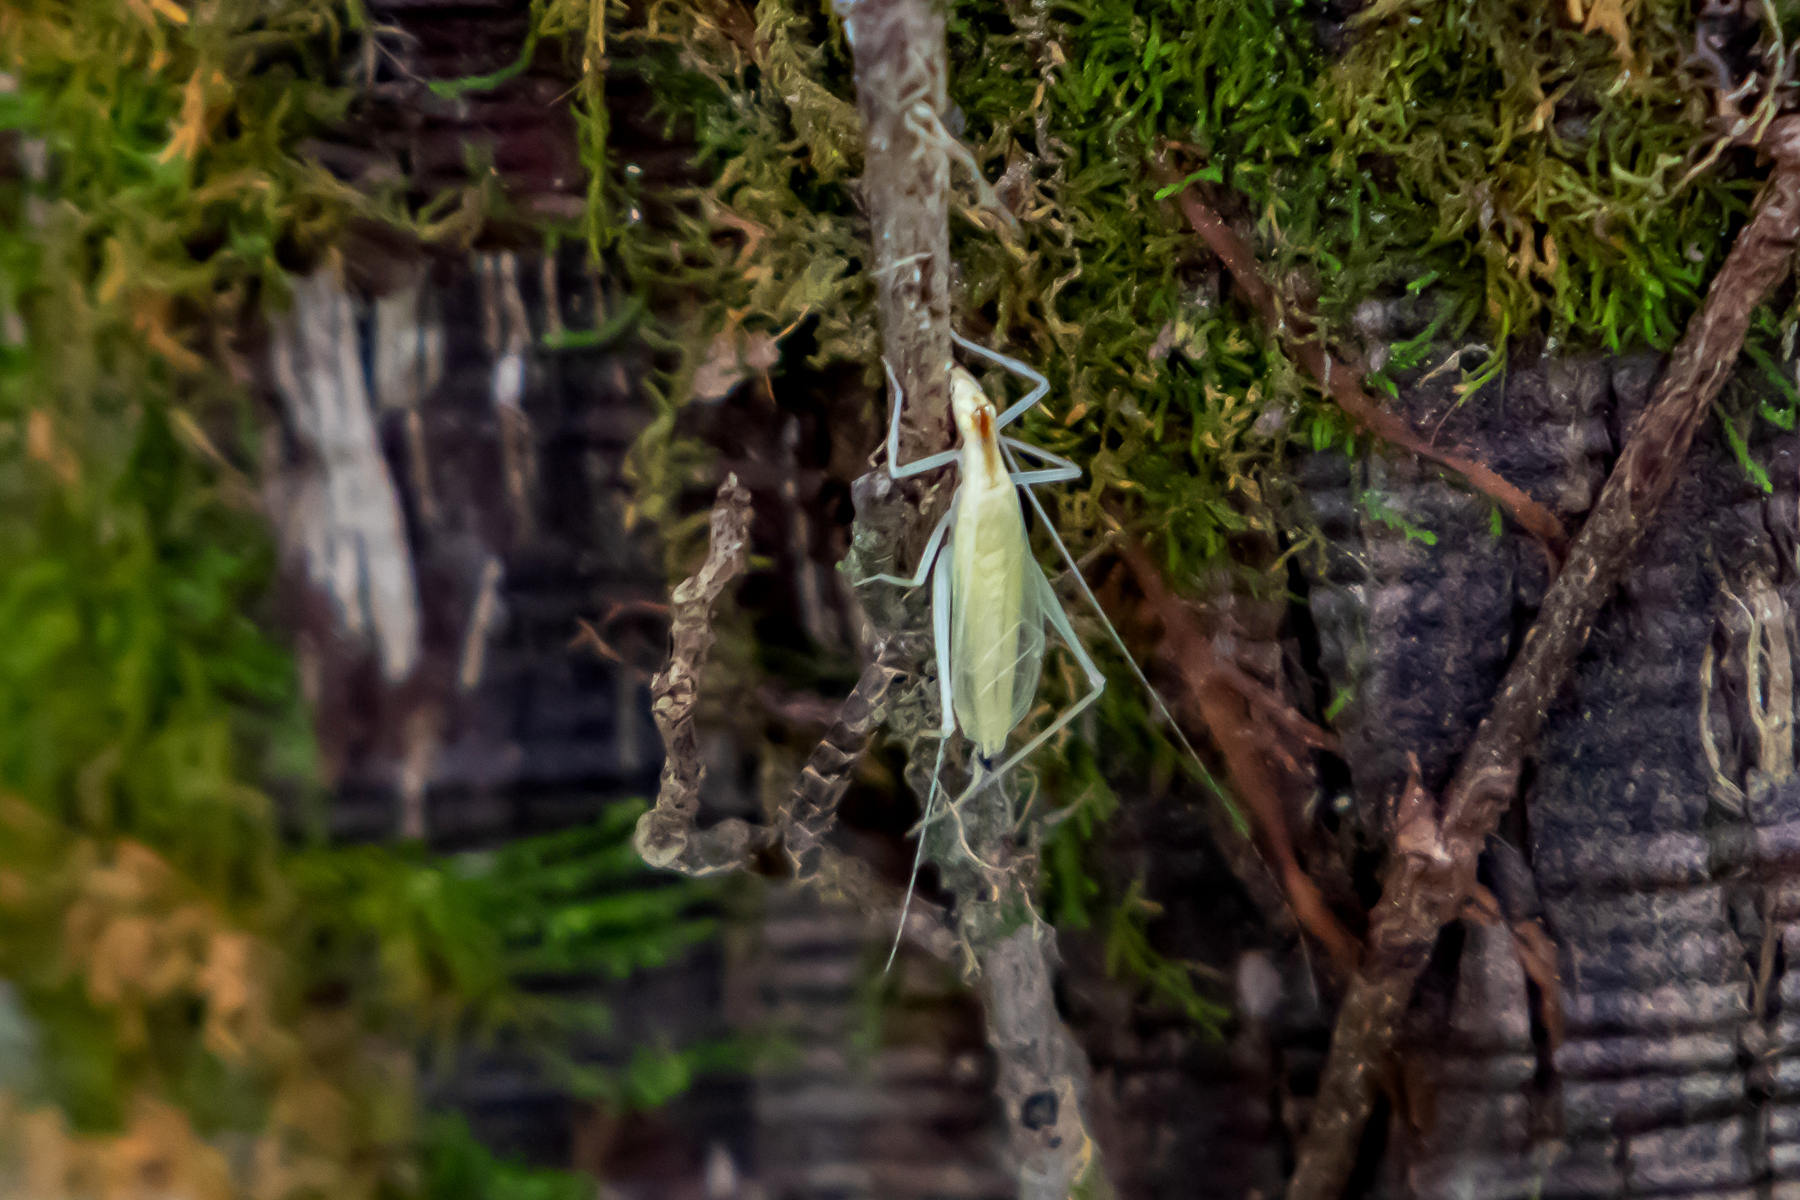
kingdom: Animalia
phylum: Arthropoda
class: Insecta
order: Orthoptera
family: Gryllidae
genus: Oecanthus
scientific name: Oecanthus niveus
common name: Narrow-winged tree cricket
